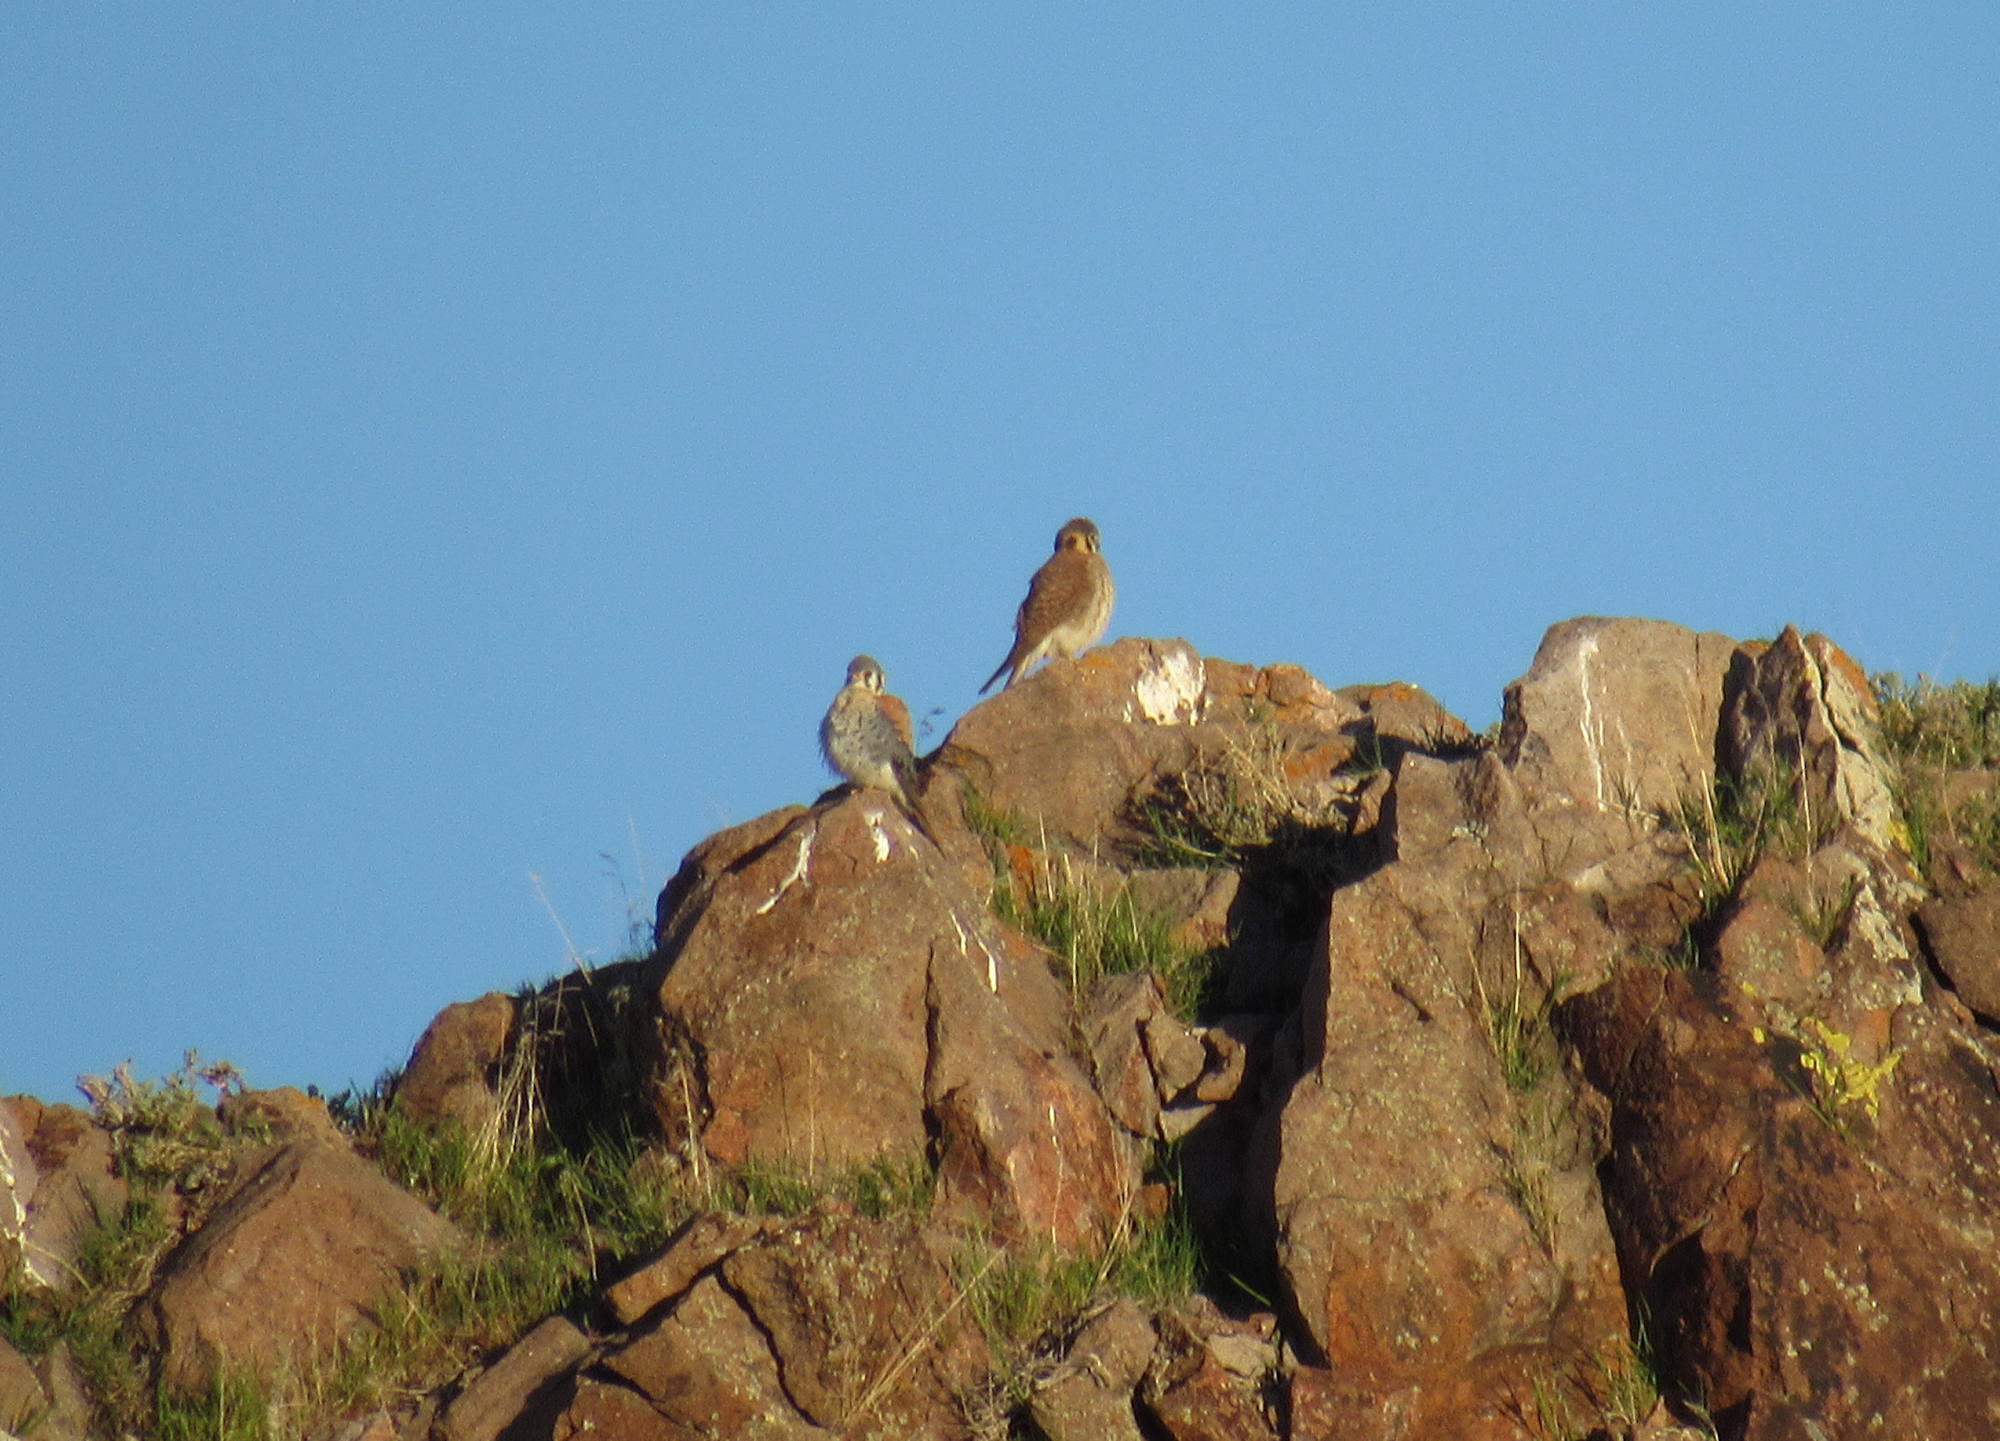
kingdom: Animalia
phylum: Chordata
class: Aves
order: Falconiformes
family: Falconidae
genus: Falco
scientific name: Falco sparverius
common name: American kestrel
